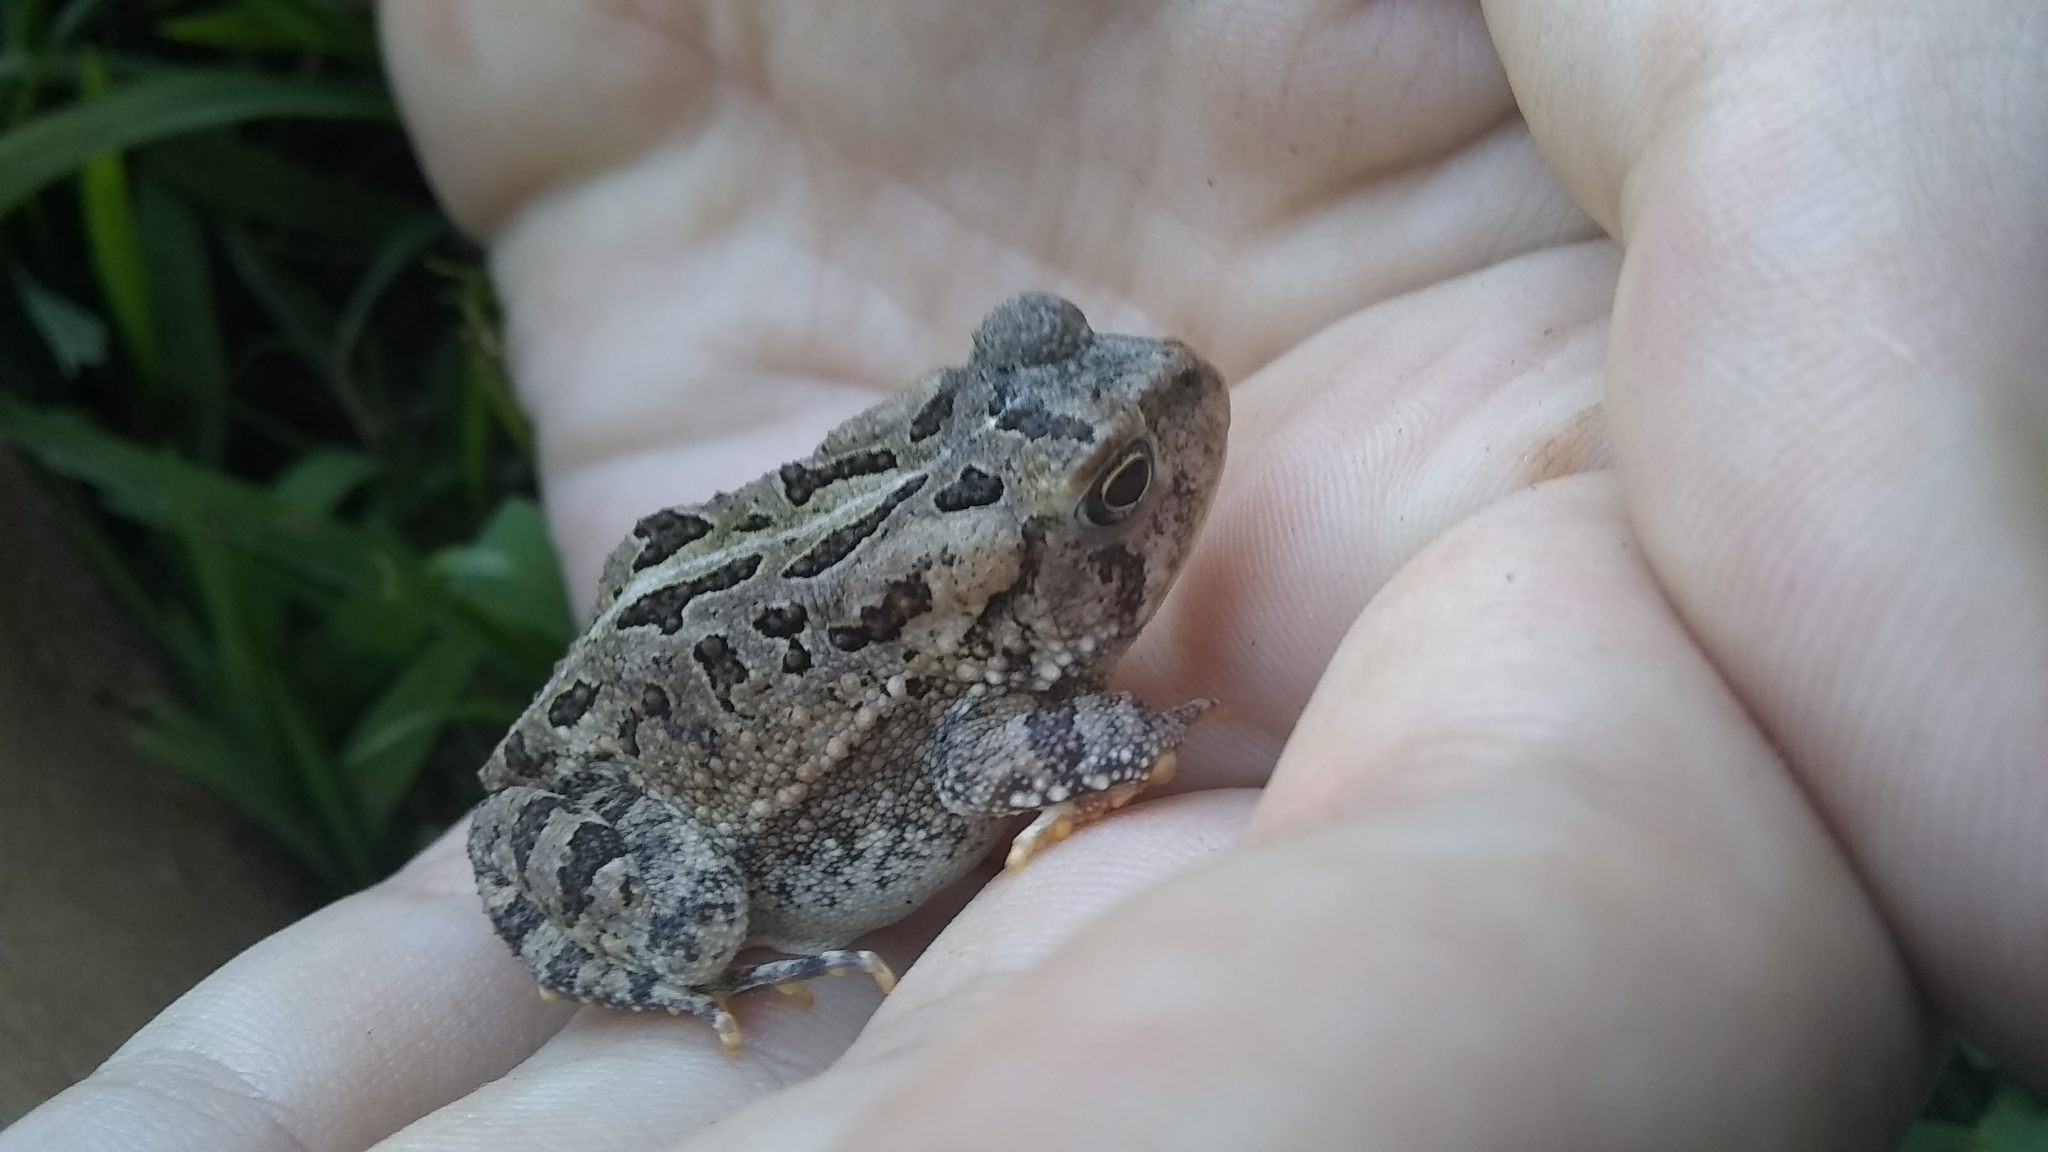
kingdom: Animalia
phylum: Chordata
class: Amphibia
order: Anura
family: Bufonidae
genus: Anaxyrus
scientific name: Anaxyrus fowleri
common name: Fowler's toad
